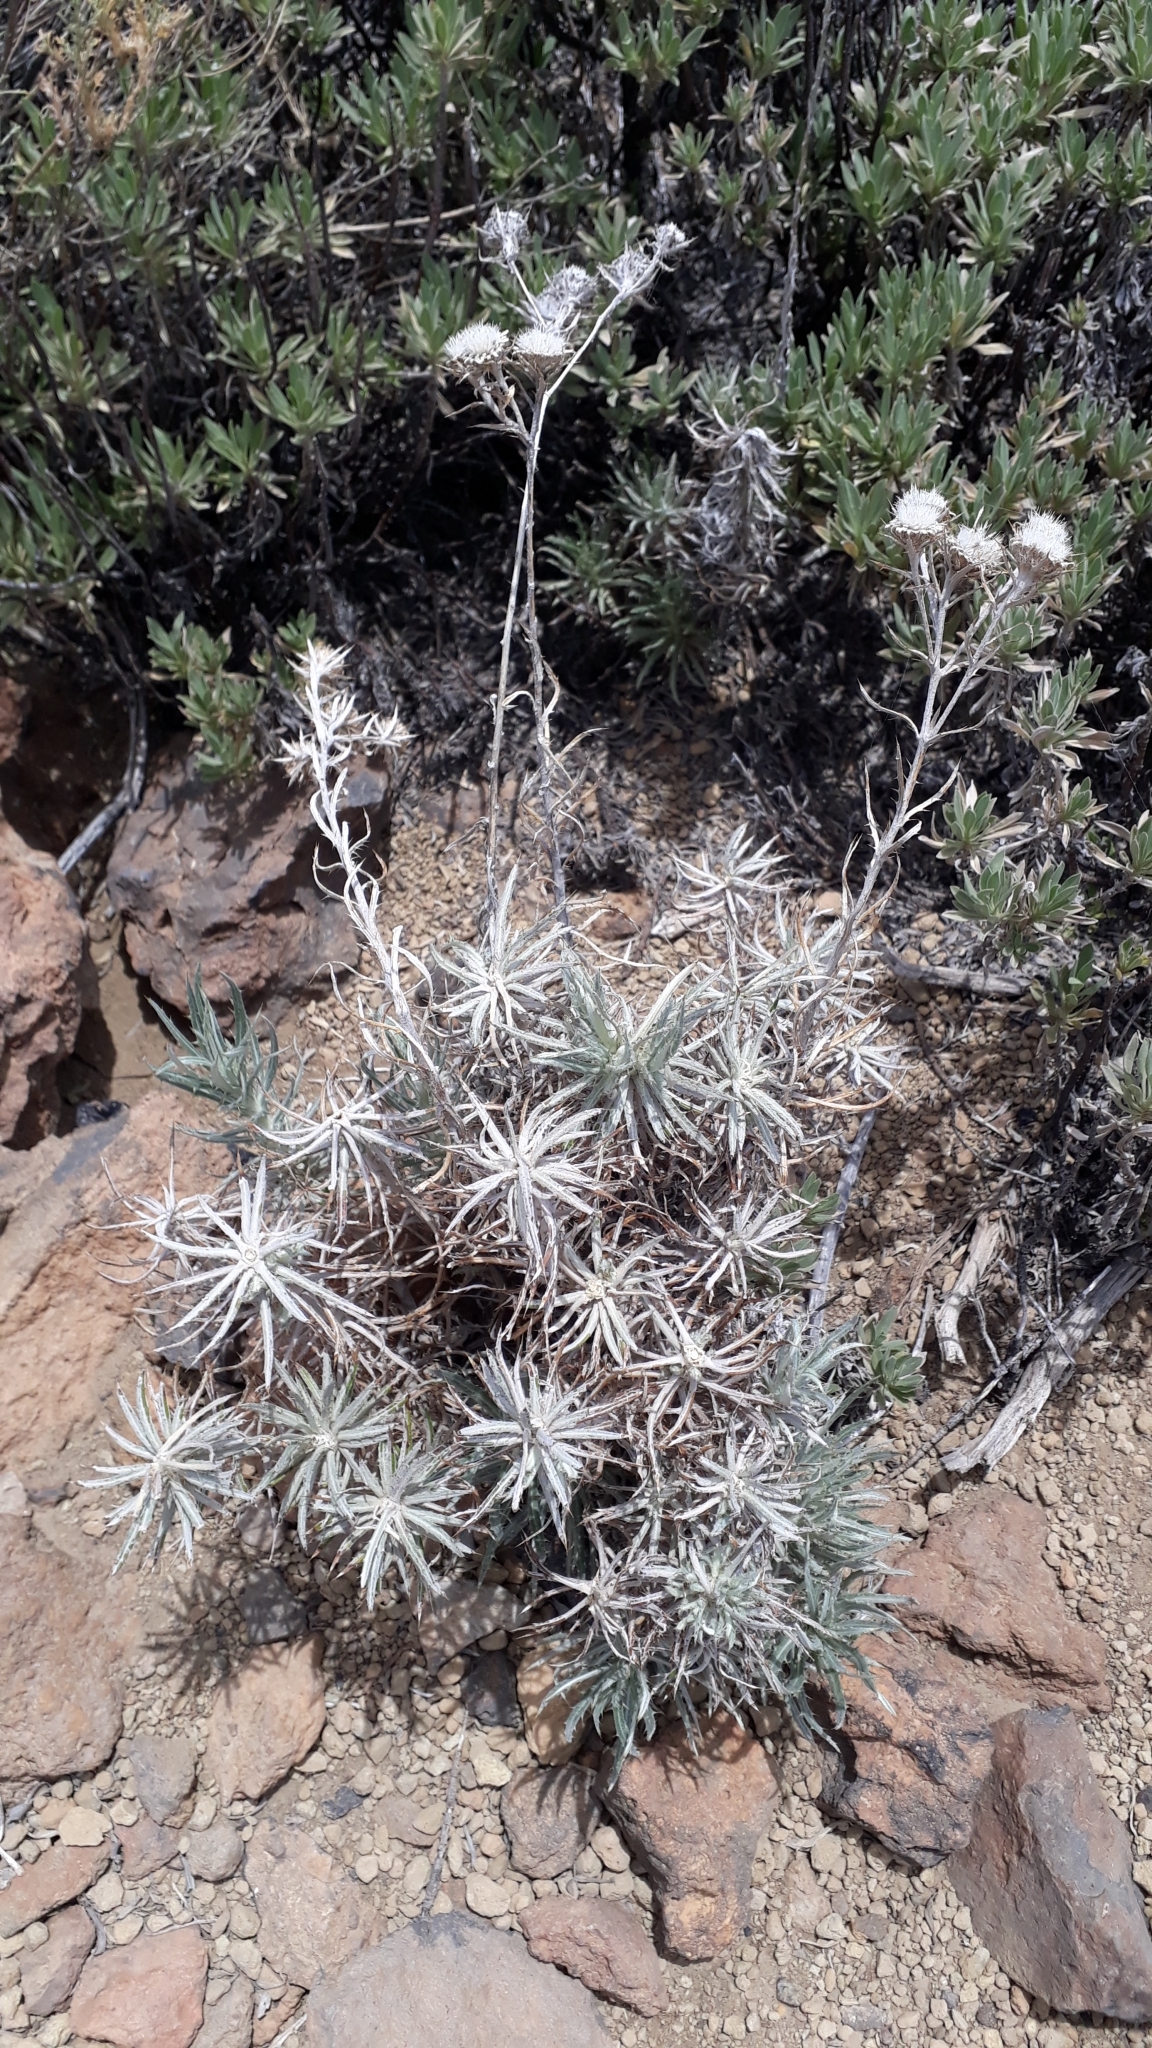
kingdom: Plantae
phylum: Tracheophyta
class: Magnoliopsida
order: Asterales
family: Asteraceae
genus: Carlina
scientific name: Carlina xeranthemoides
